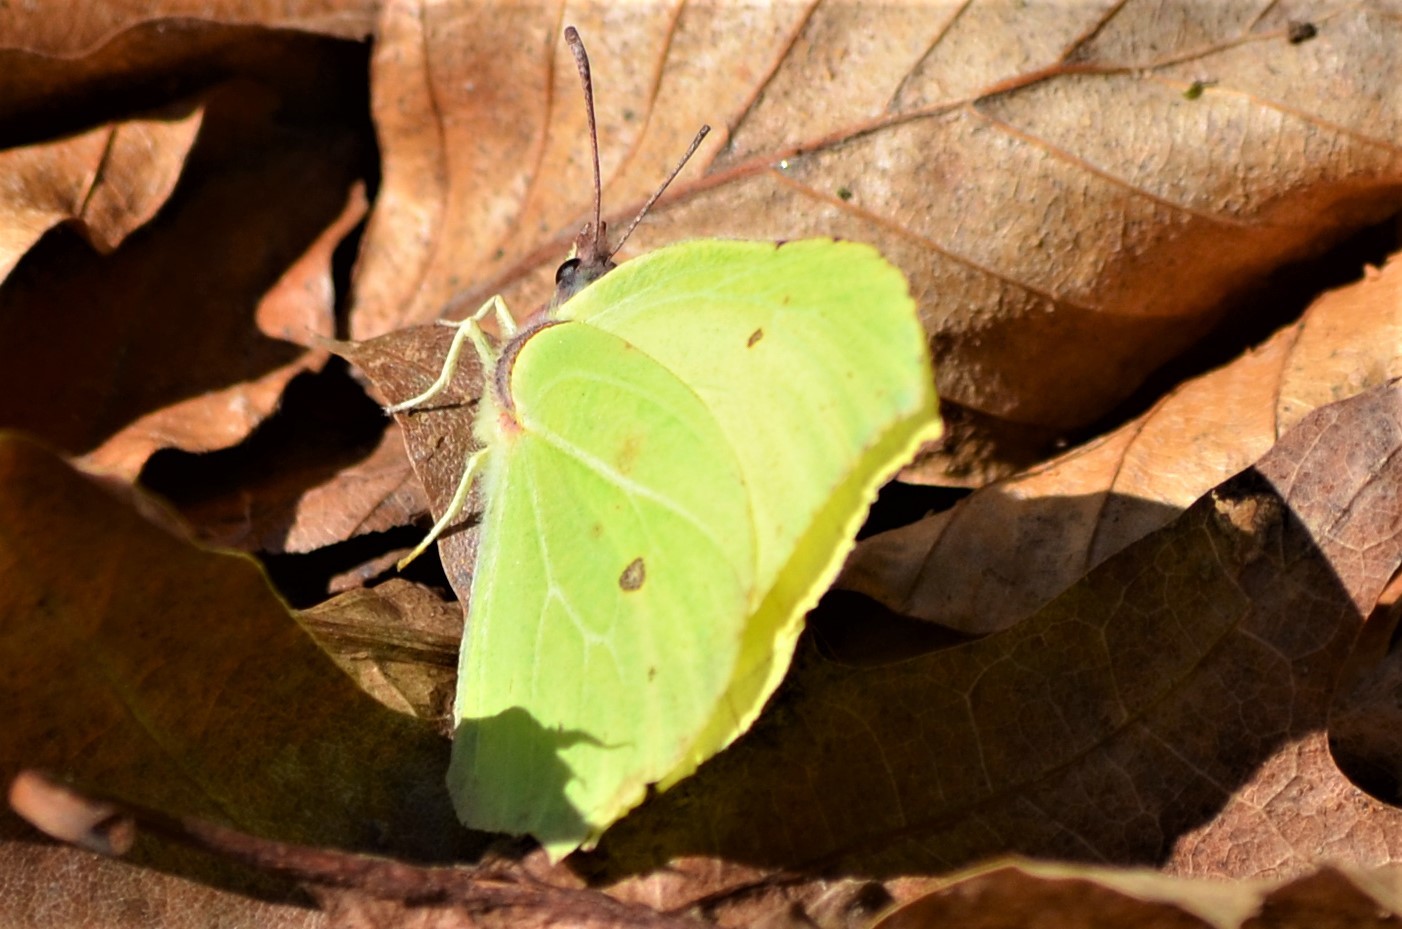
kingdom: Animalia
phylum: Arthropoda
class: Insecta
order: Lepidoptera
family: Pieridae
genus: Gonepteryx
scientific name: Gonepteryx rhamni
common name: Brimstone
